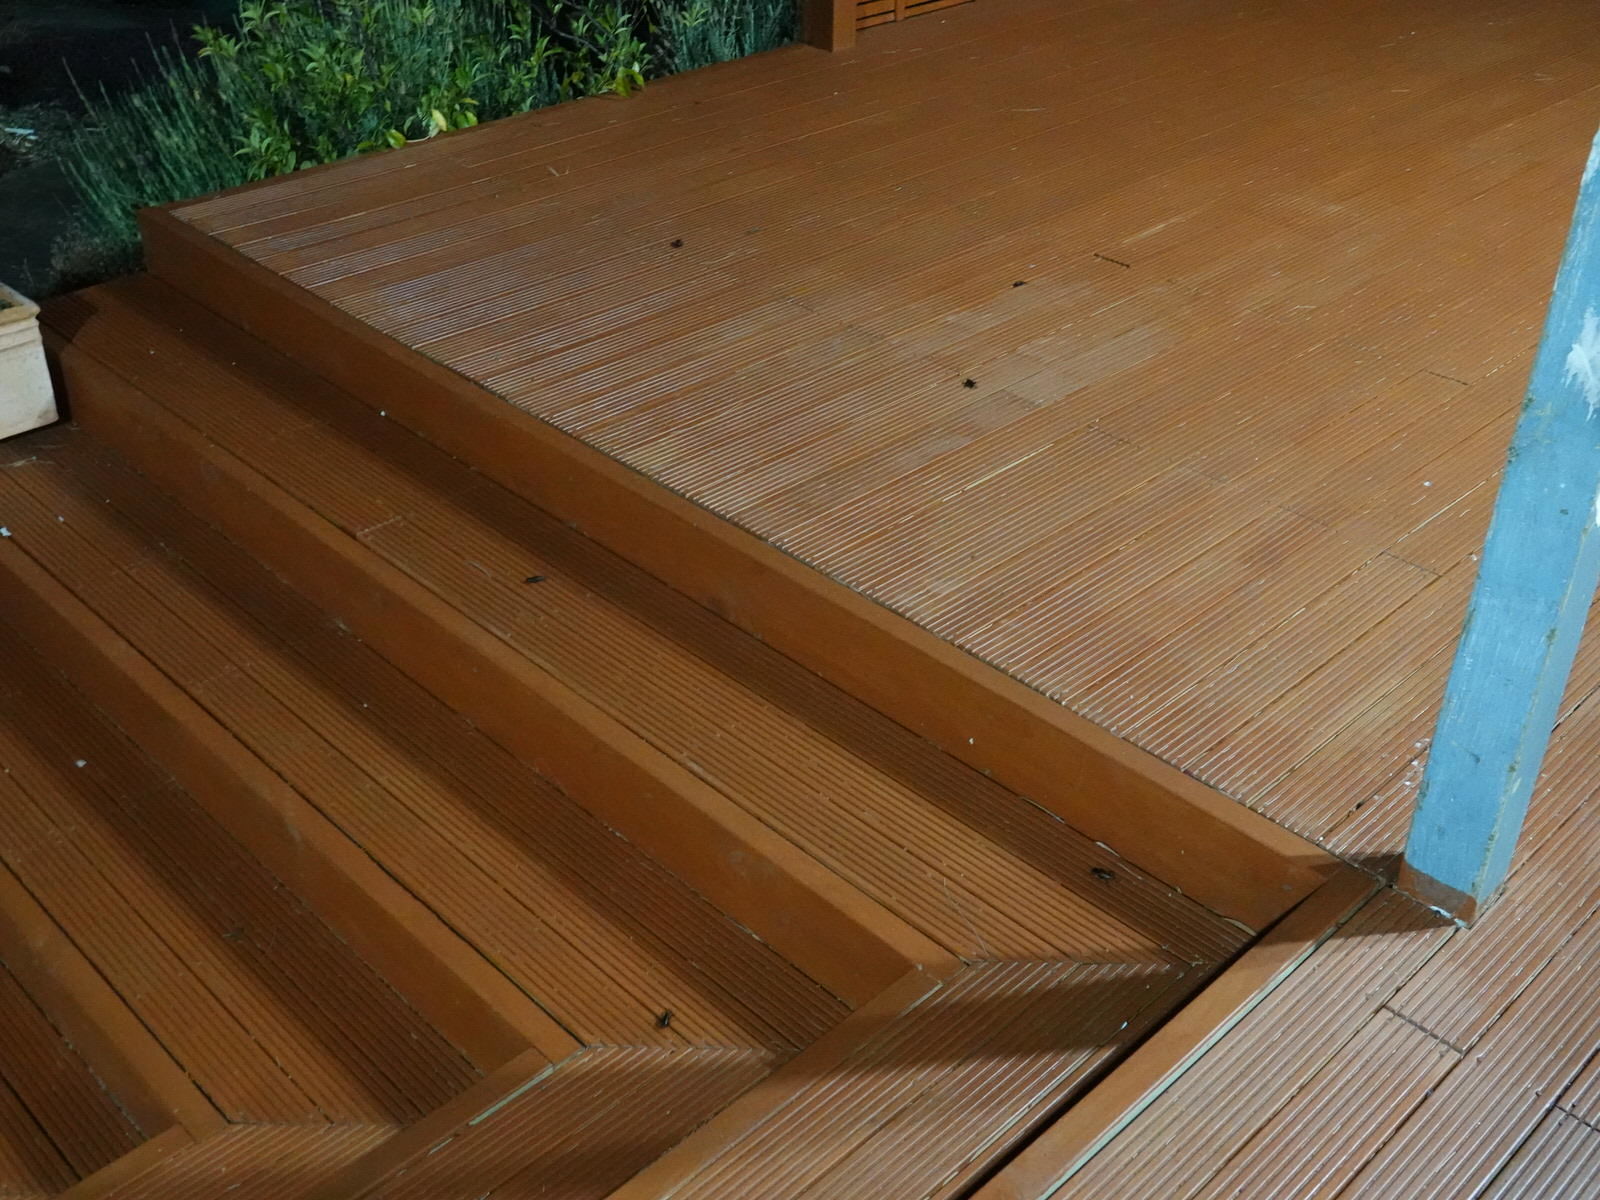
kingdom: Animalia
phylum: Arthropoda
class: Insecta
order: Orthoptera
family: Gryllidae
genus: Teleogryllus
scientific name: Teleogryllus commodus
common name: Black field cricket
